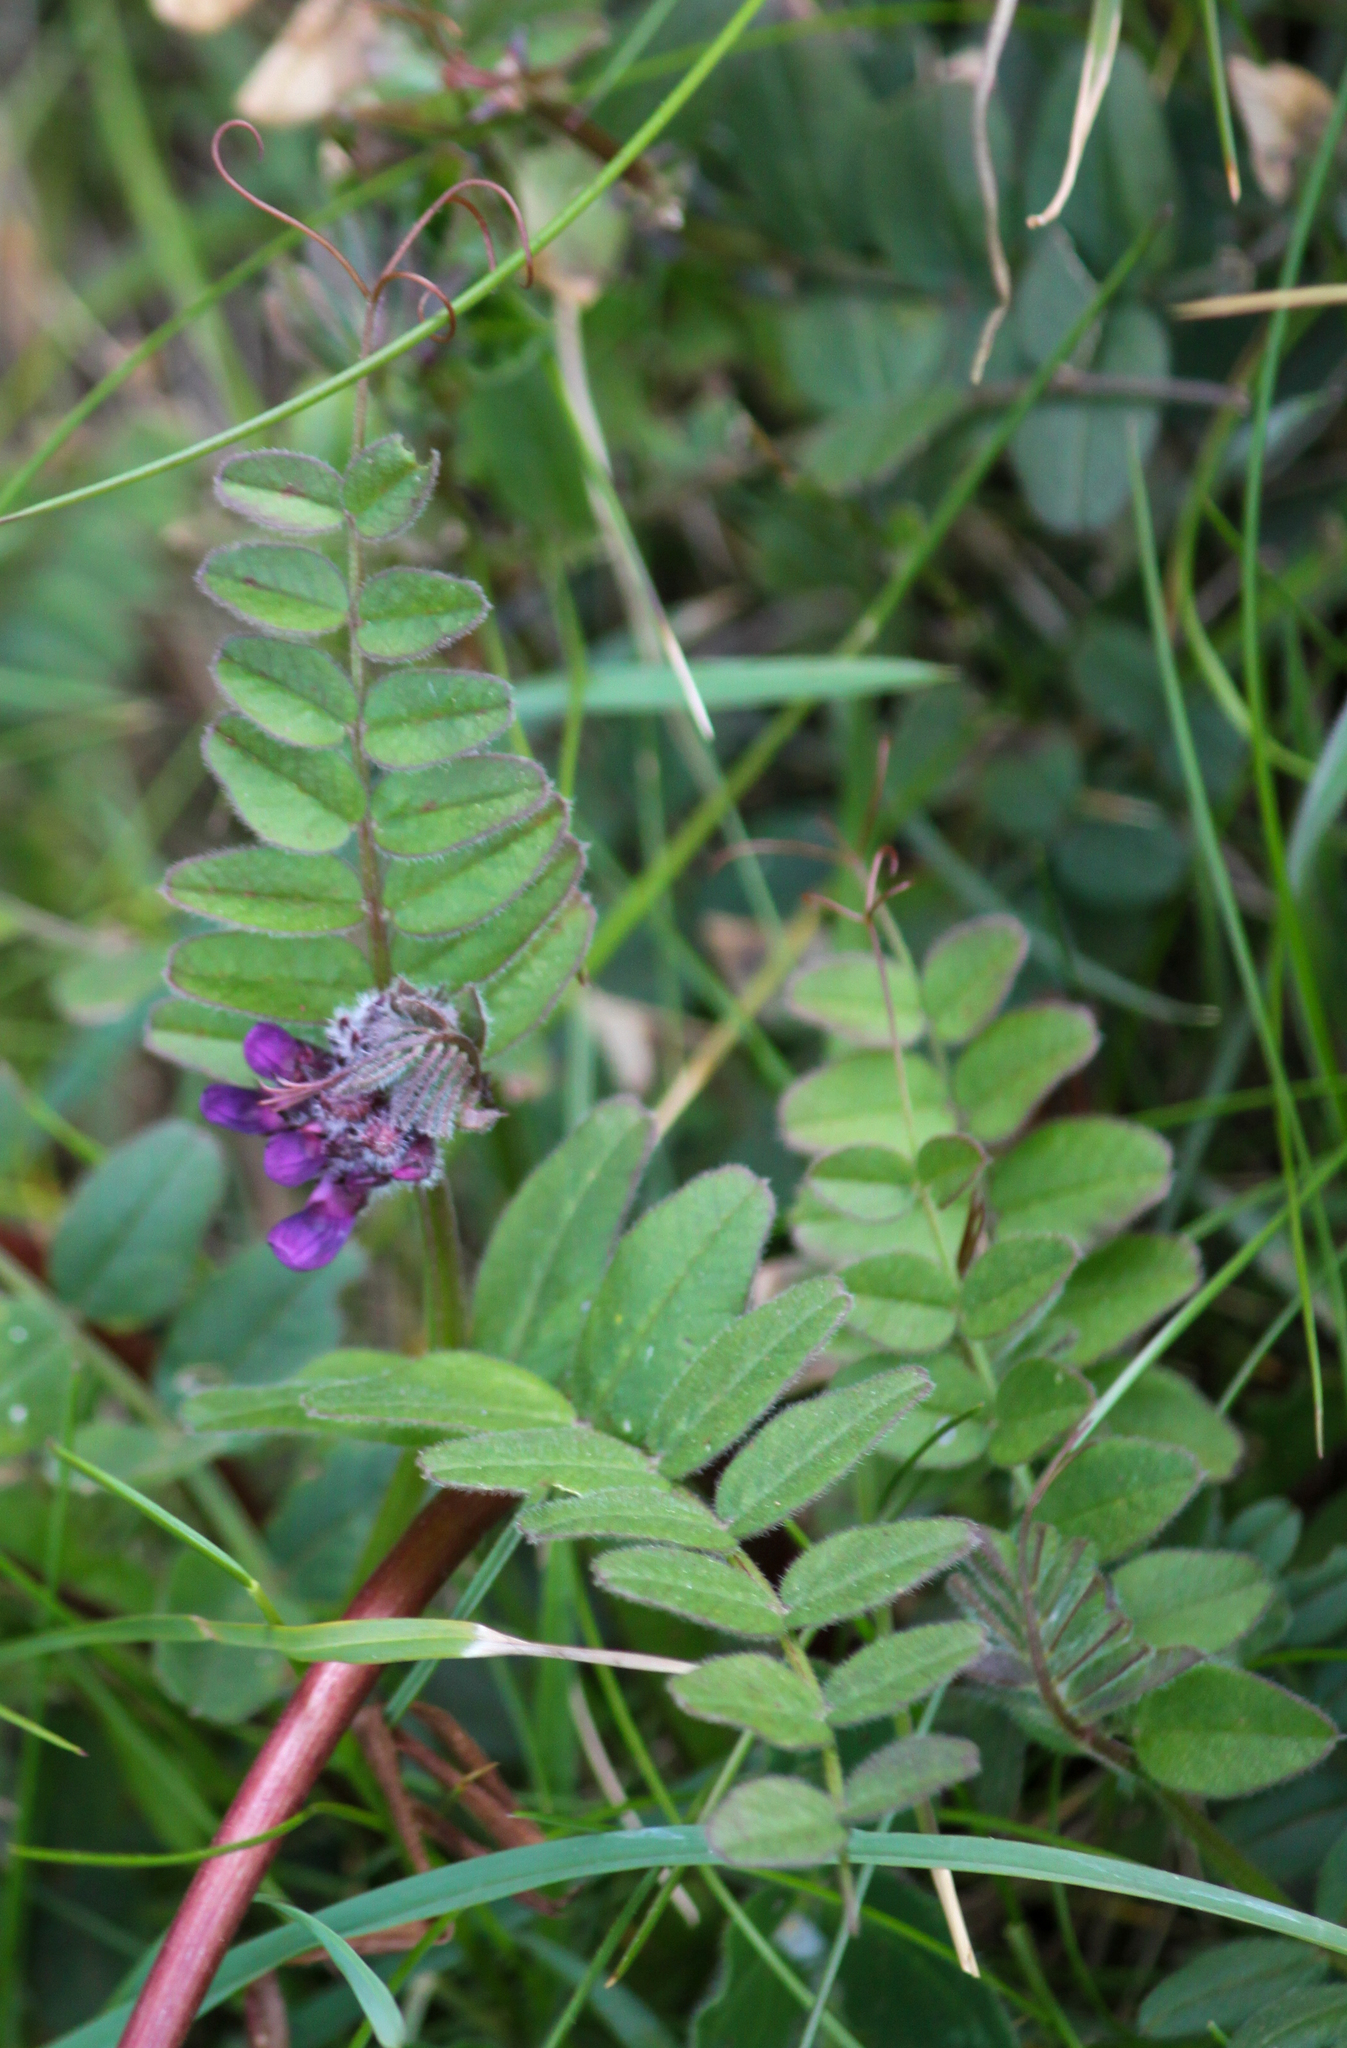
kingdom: Plantae
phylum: Tracheophyta
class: Magnoliopsida
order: Fabales
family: Fabaceae
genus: Vicia
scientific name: Vicia sepium
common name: Bush vetch
